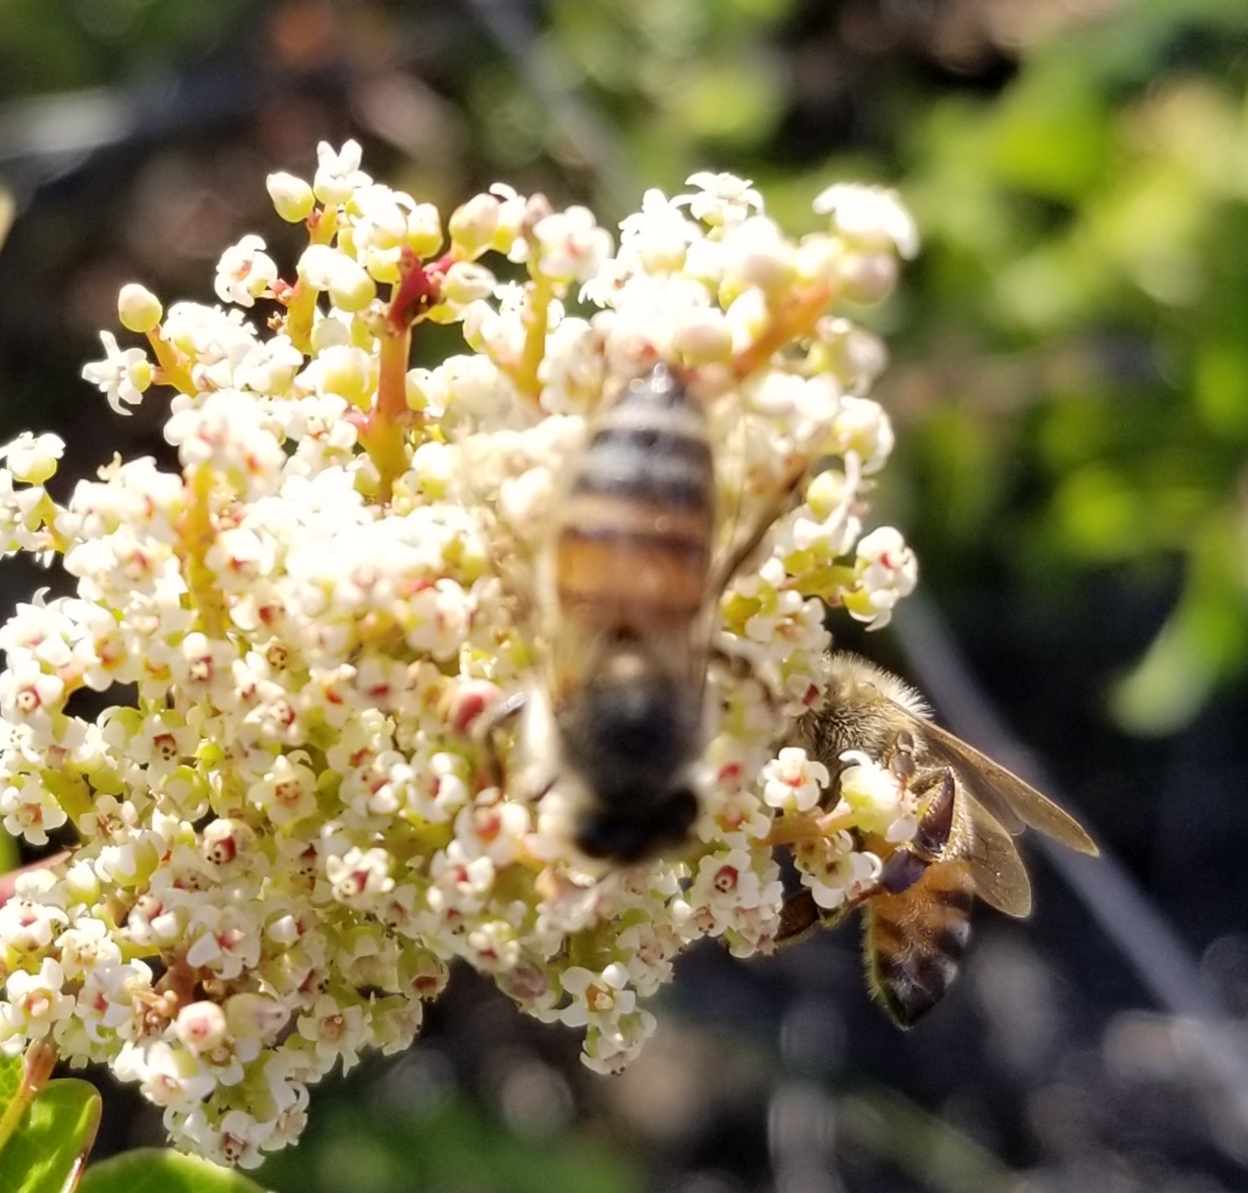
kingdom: Animalia
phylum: Arthropoda
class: Insecta
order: Hymenoptera
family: Apidae
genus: Apis
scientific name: Apis mellifera
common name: Honey bee
